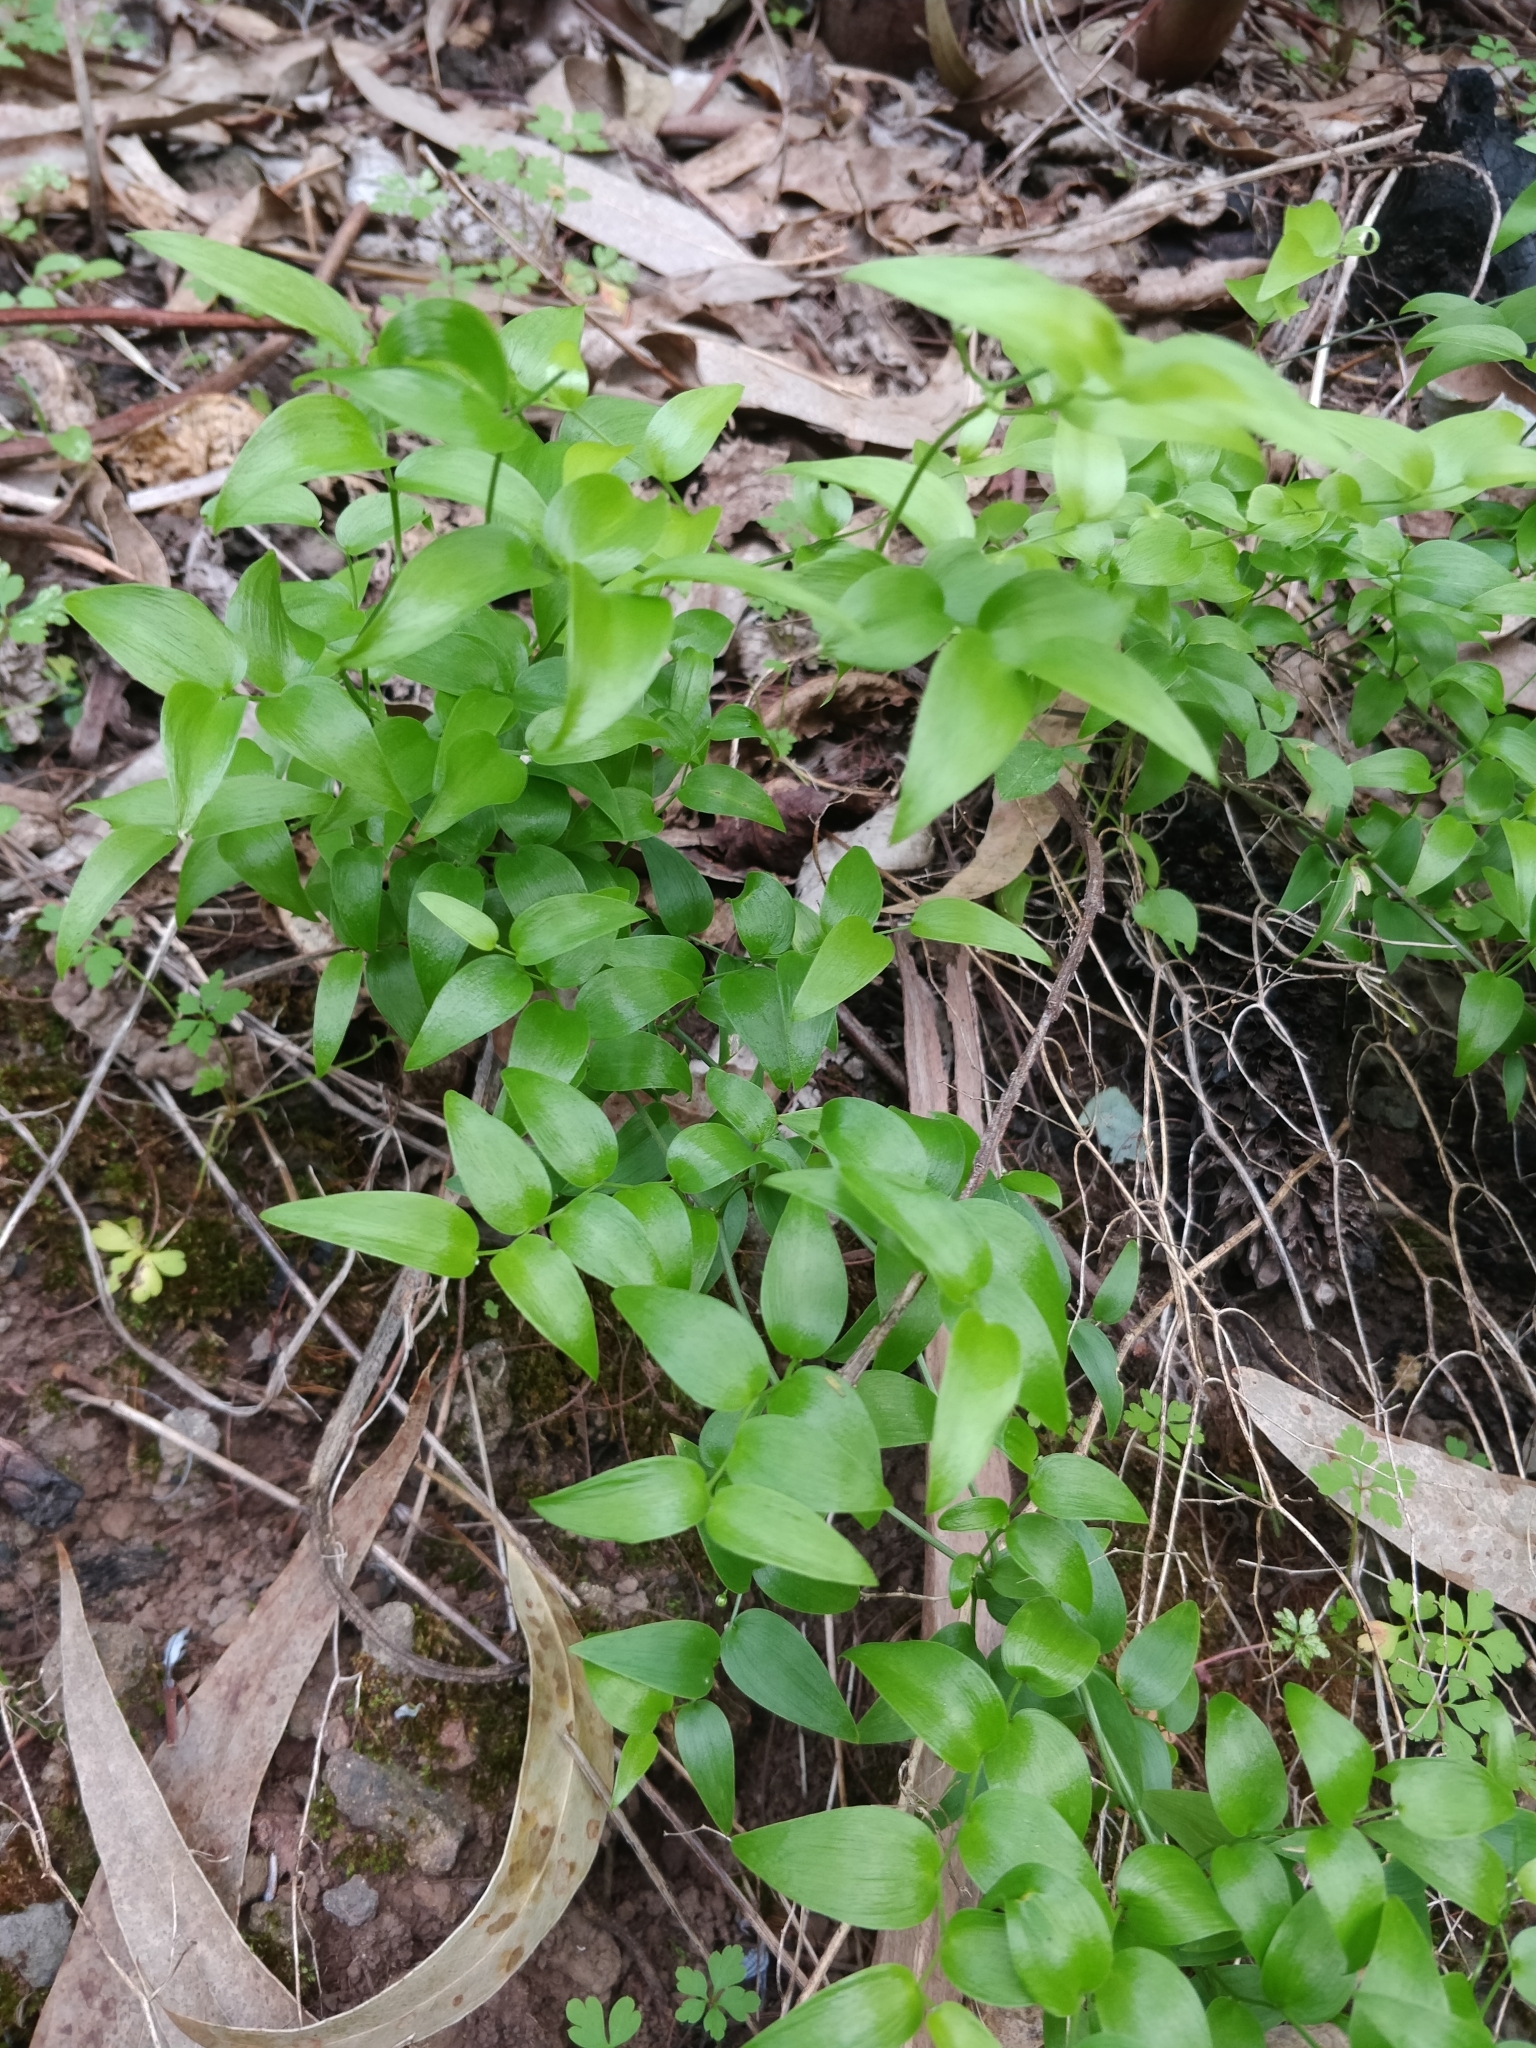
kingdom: Plantae
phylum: Tracheophyta
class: Liliopsida
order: Asparagales
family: Asparagaceae
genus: Asparagus
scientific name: Asparagus asparagoides
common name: African asparagus fern
